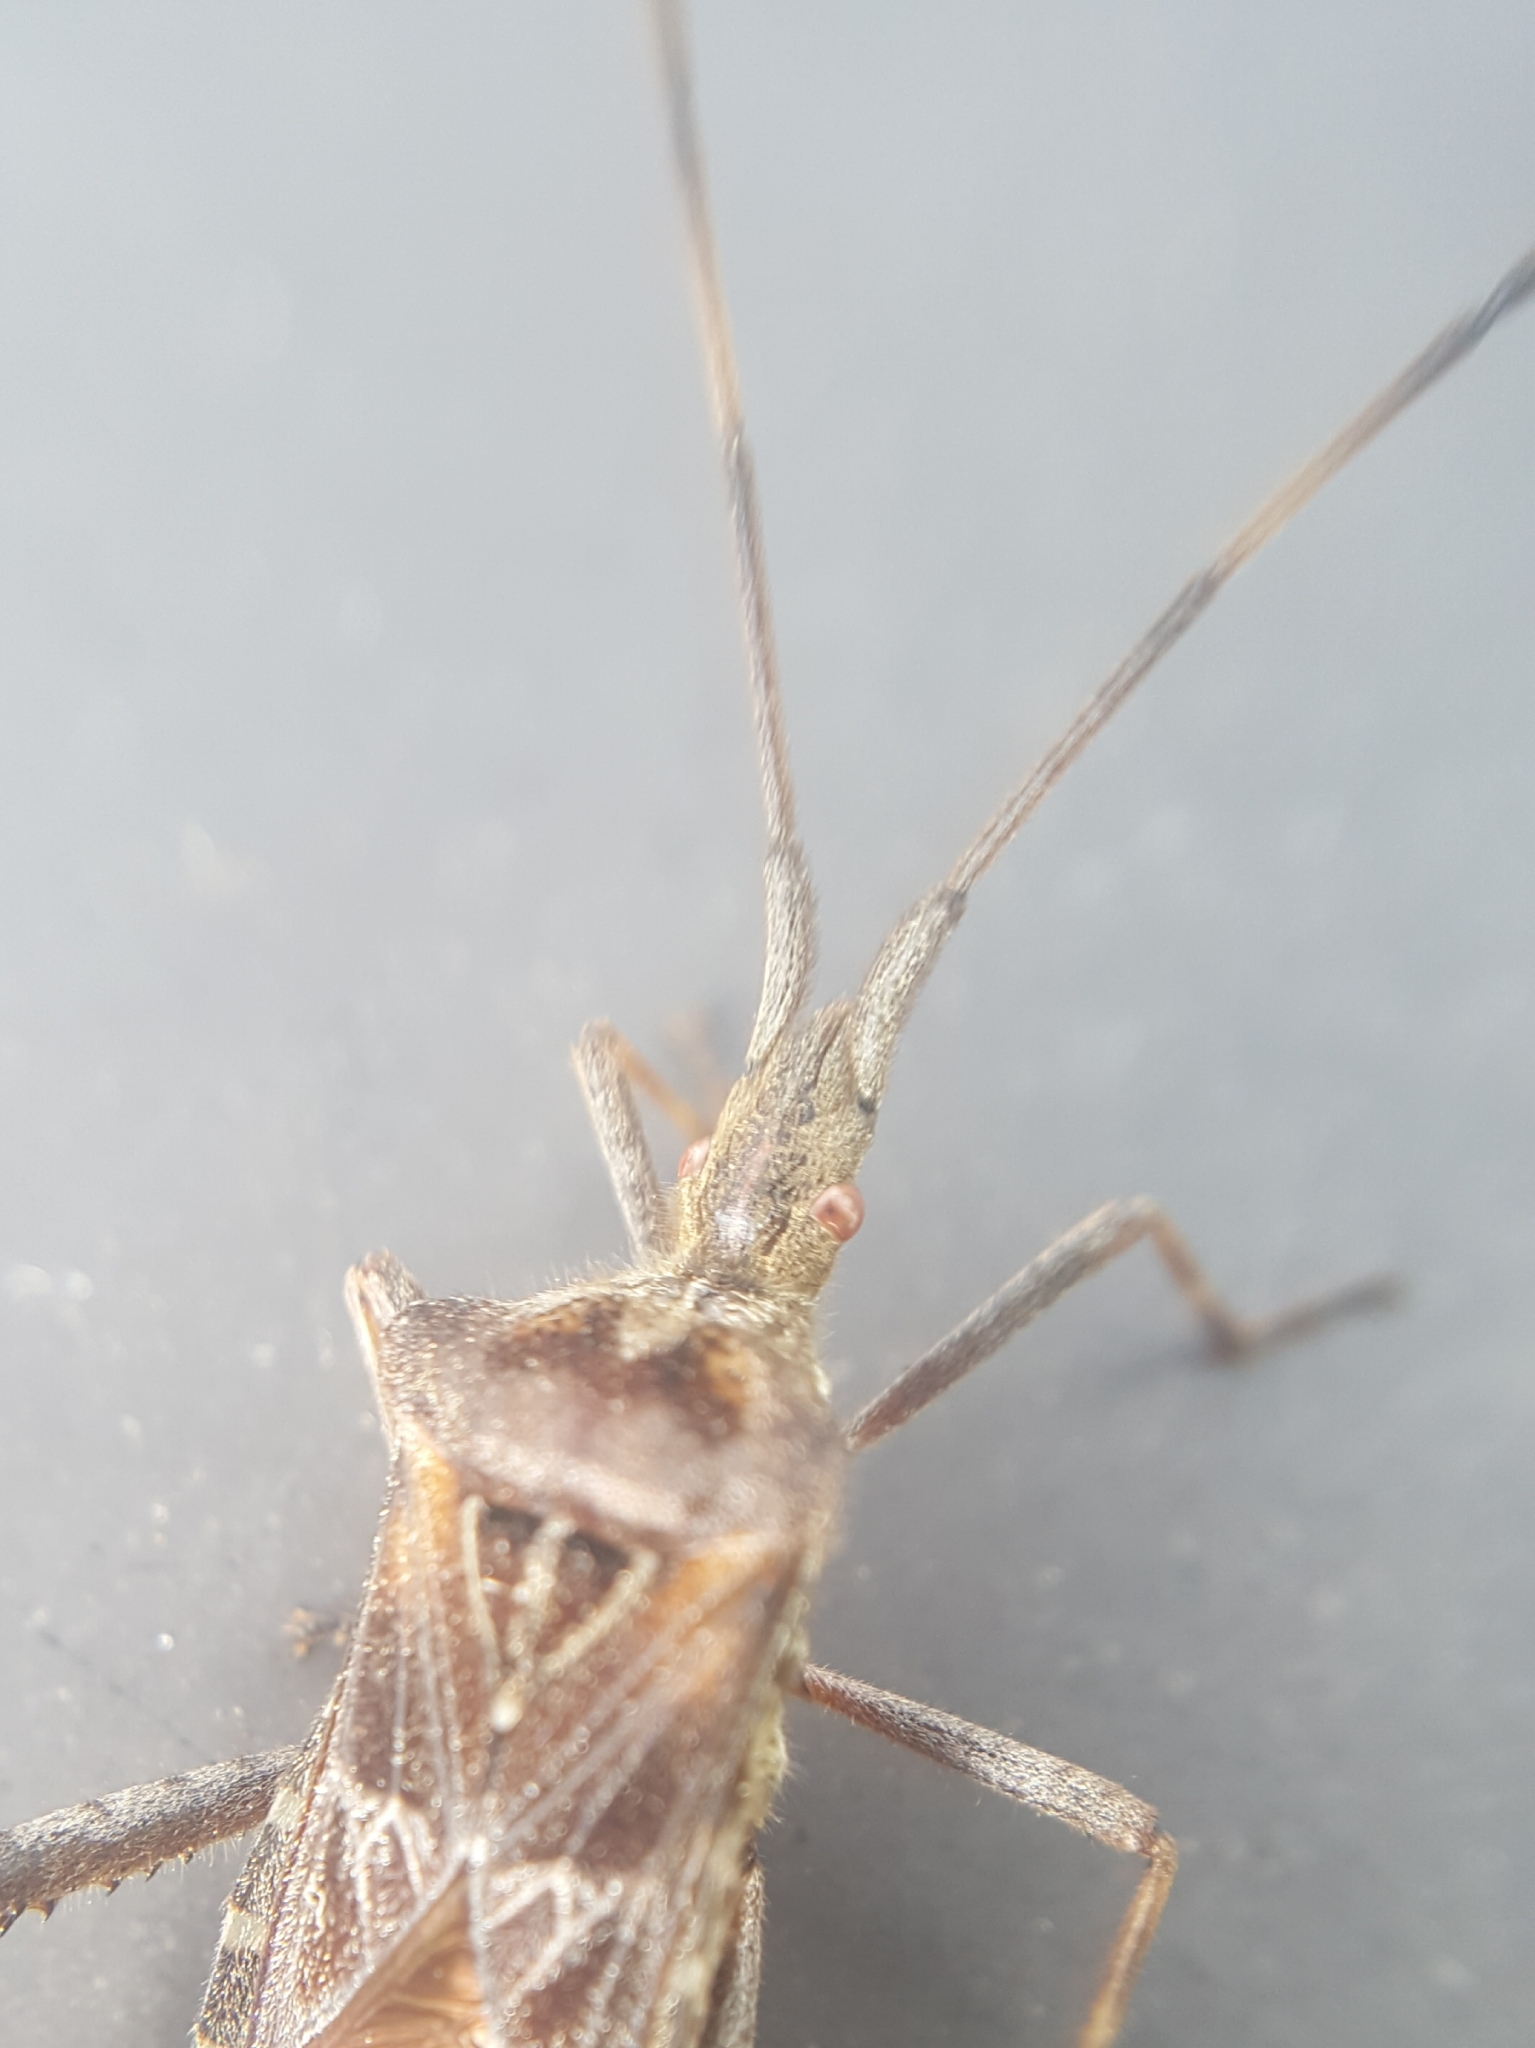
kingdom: Animalia
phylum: Arthropoda
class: Insecta
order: Hemiptera
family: Coreidae
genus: Leptoglossus
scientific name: Leptoglossus occidentalis
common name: Western conifer-seed bug
